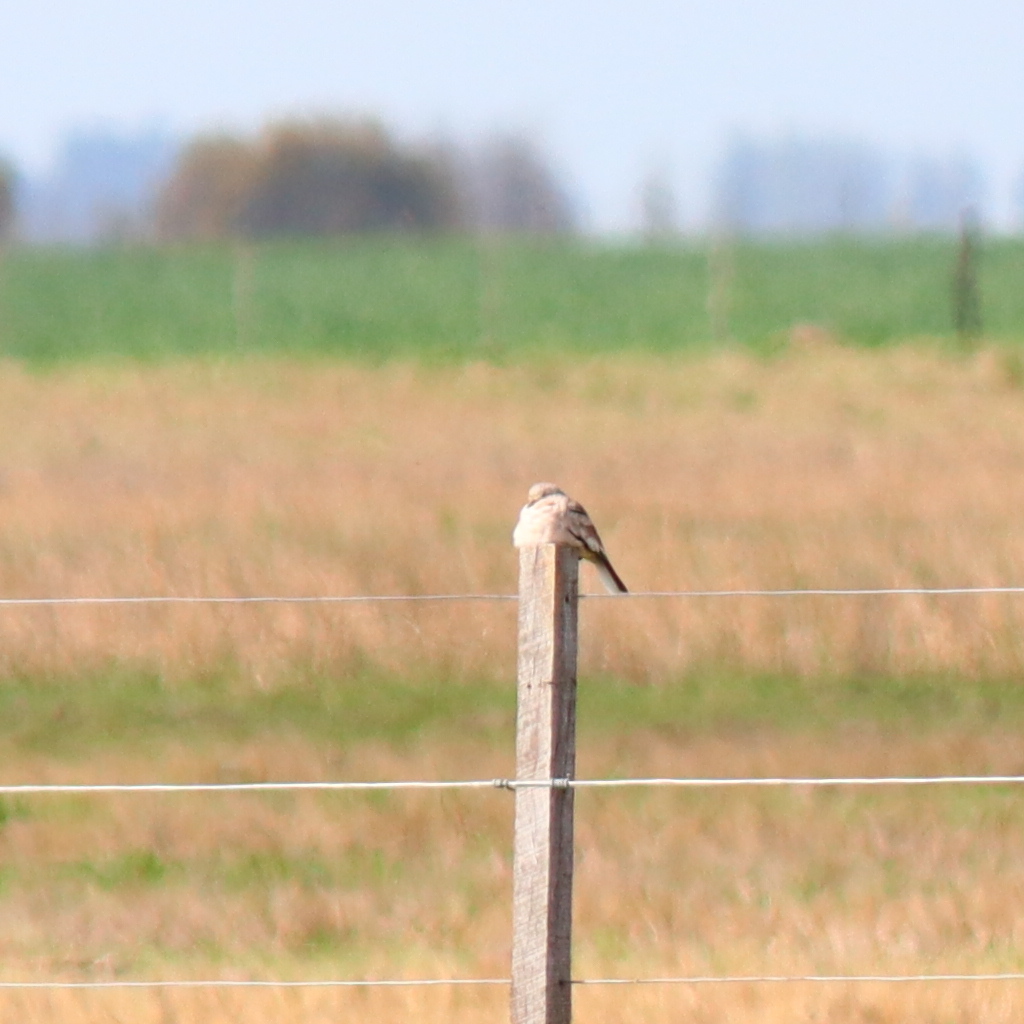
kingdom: Animalia
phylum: Chordata
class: Aves
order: Columbiformes
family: Columbidae
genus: Columbina
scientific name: Columbina picui
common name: Picui ground dove
